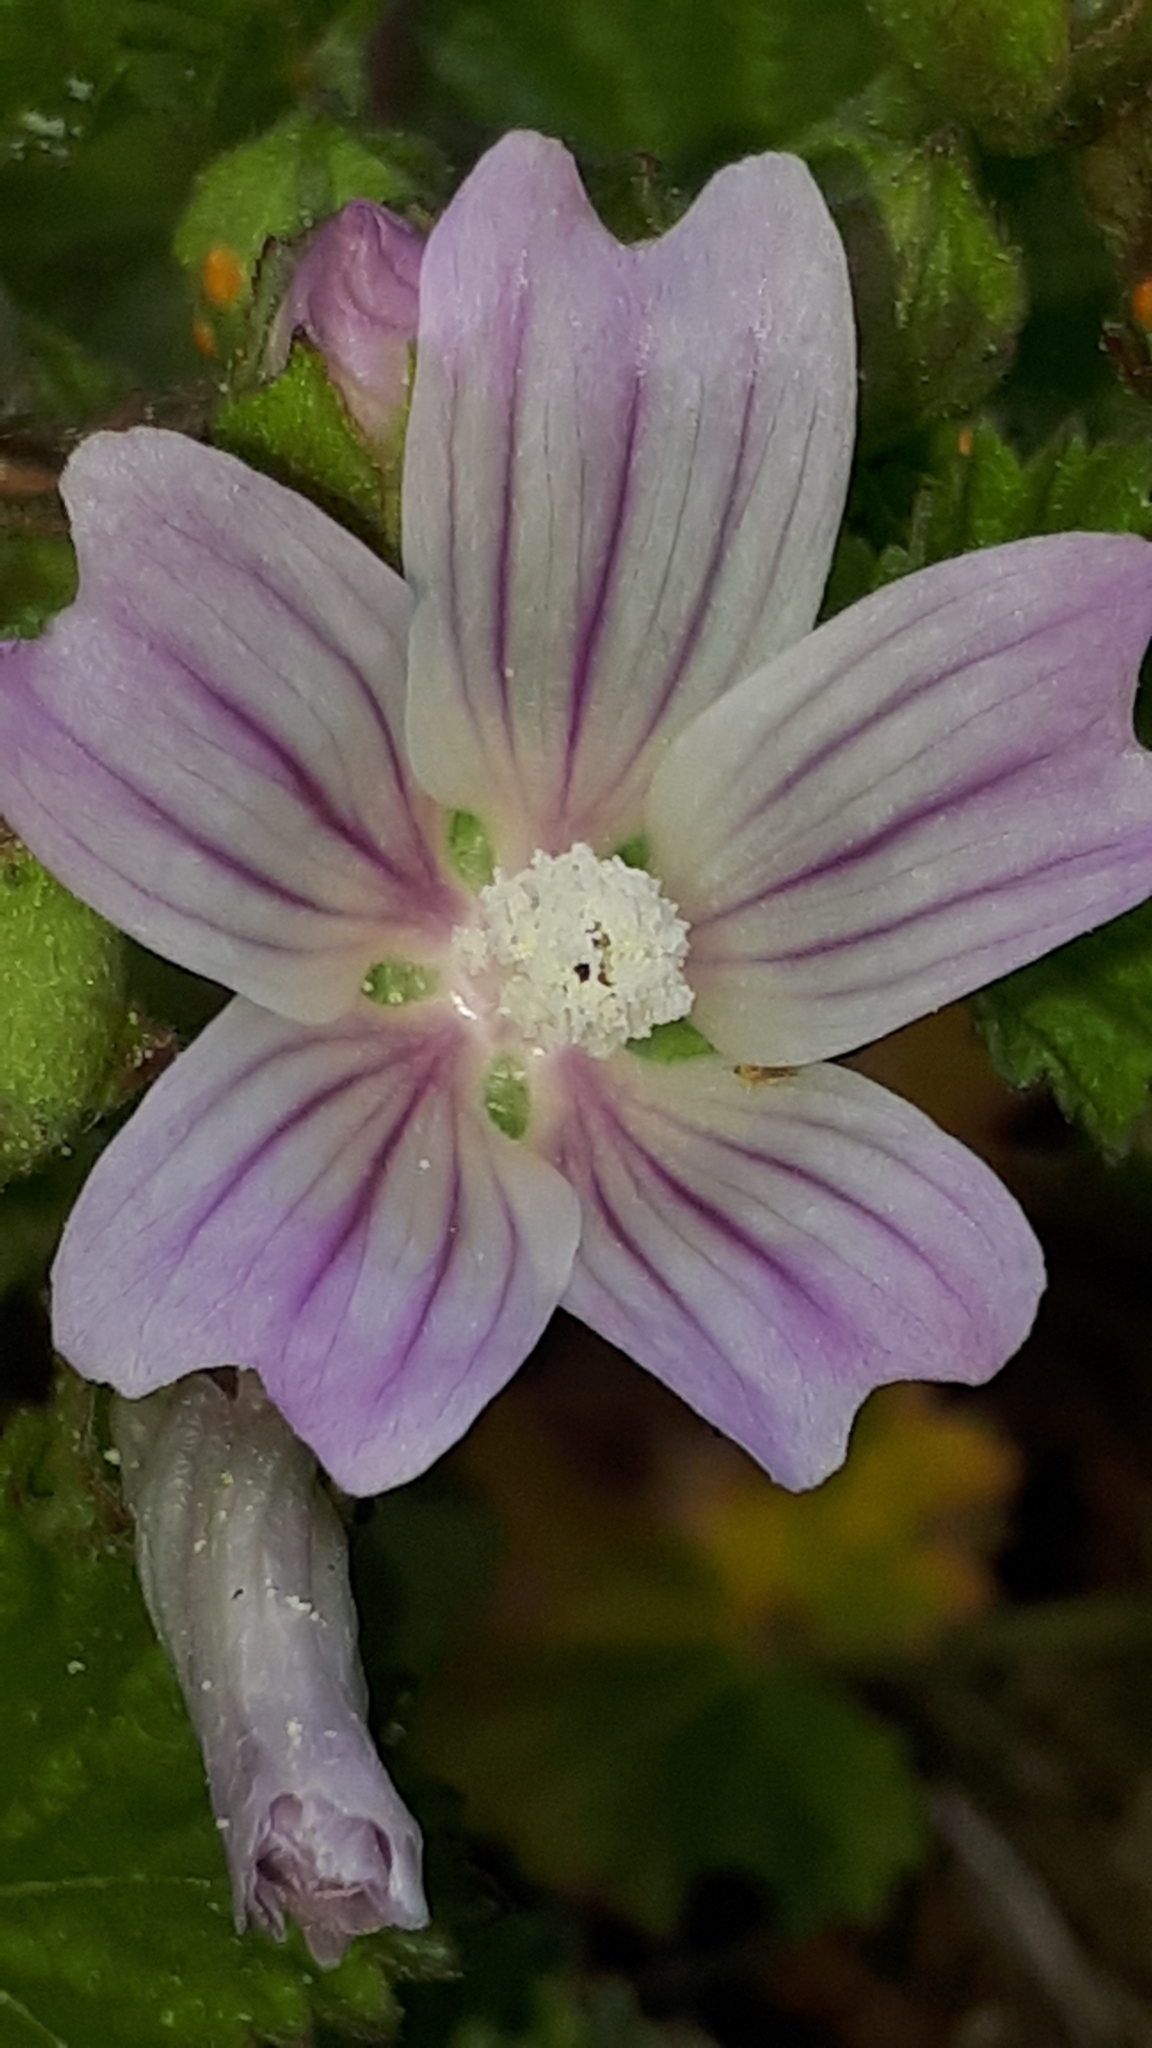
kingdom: Plantae
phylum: Tracheophyta
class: Magnoliopsida
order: Malvales
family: Malvaceae
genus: Malva
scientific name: Malva neglecta
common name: Common mallow
